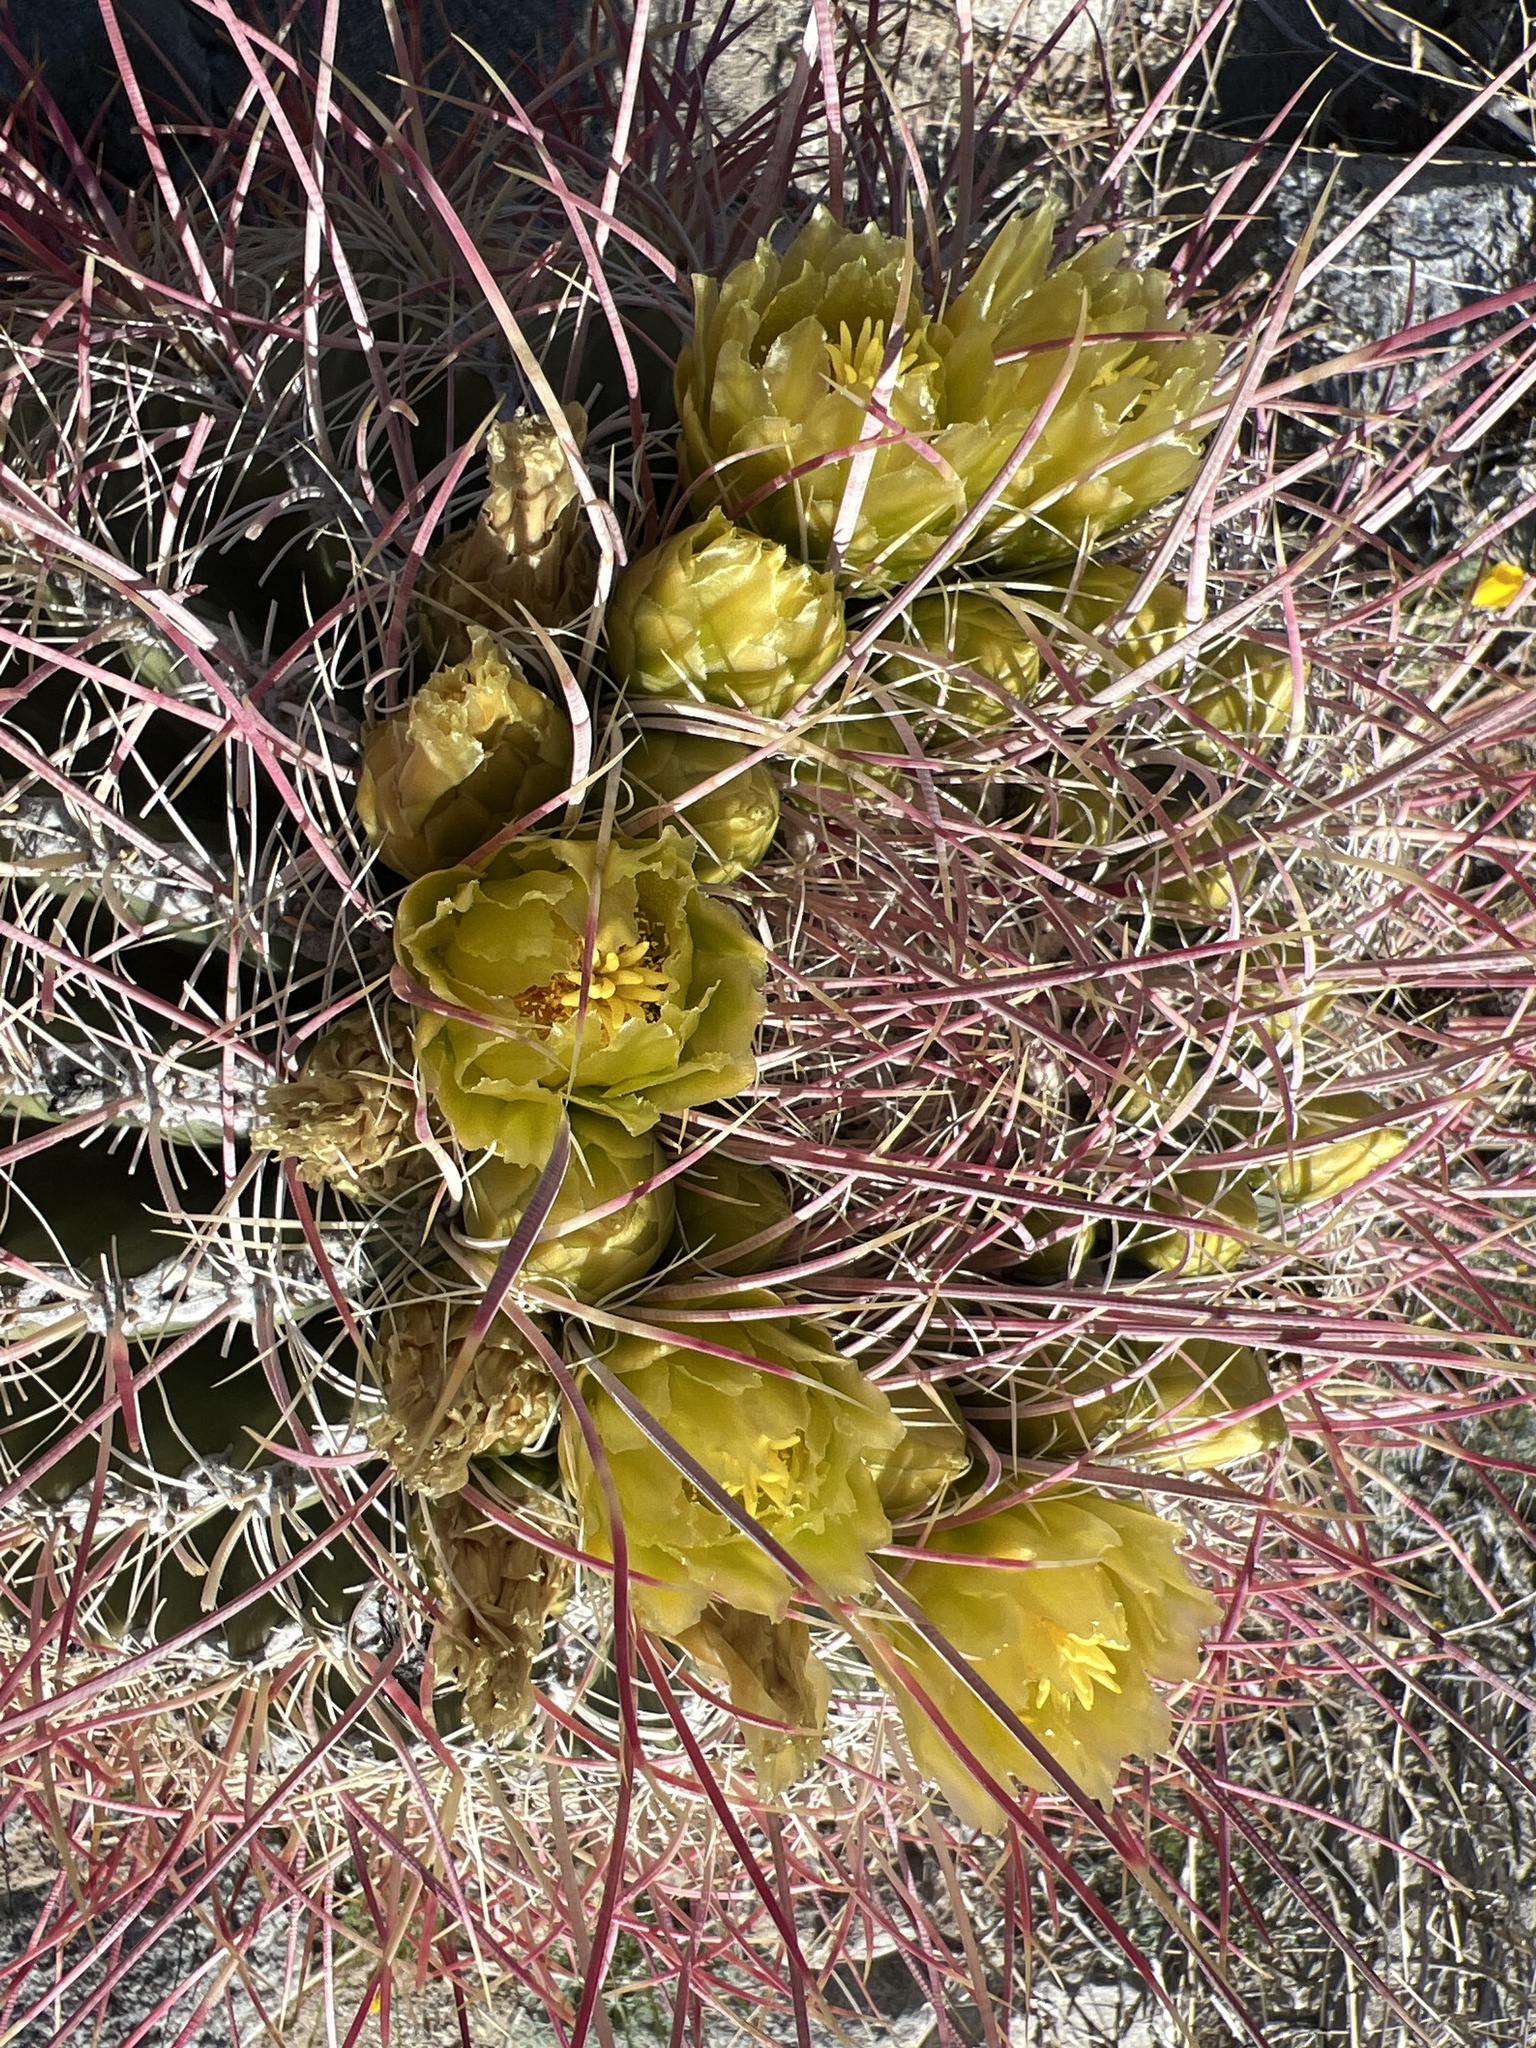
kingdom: Plantae
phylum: Tracheophyta
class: Magnoliopsida
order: Caryophyllales
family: Cactaceae
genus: Ferocactus
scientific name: Ferocactus cylindraceus
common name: California barrel cactus
